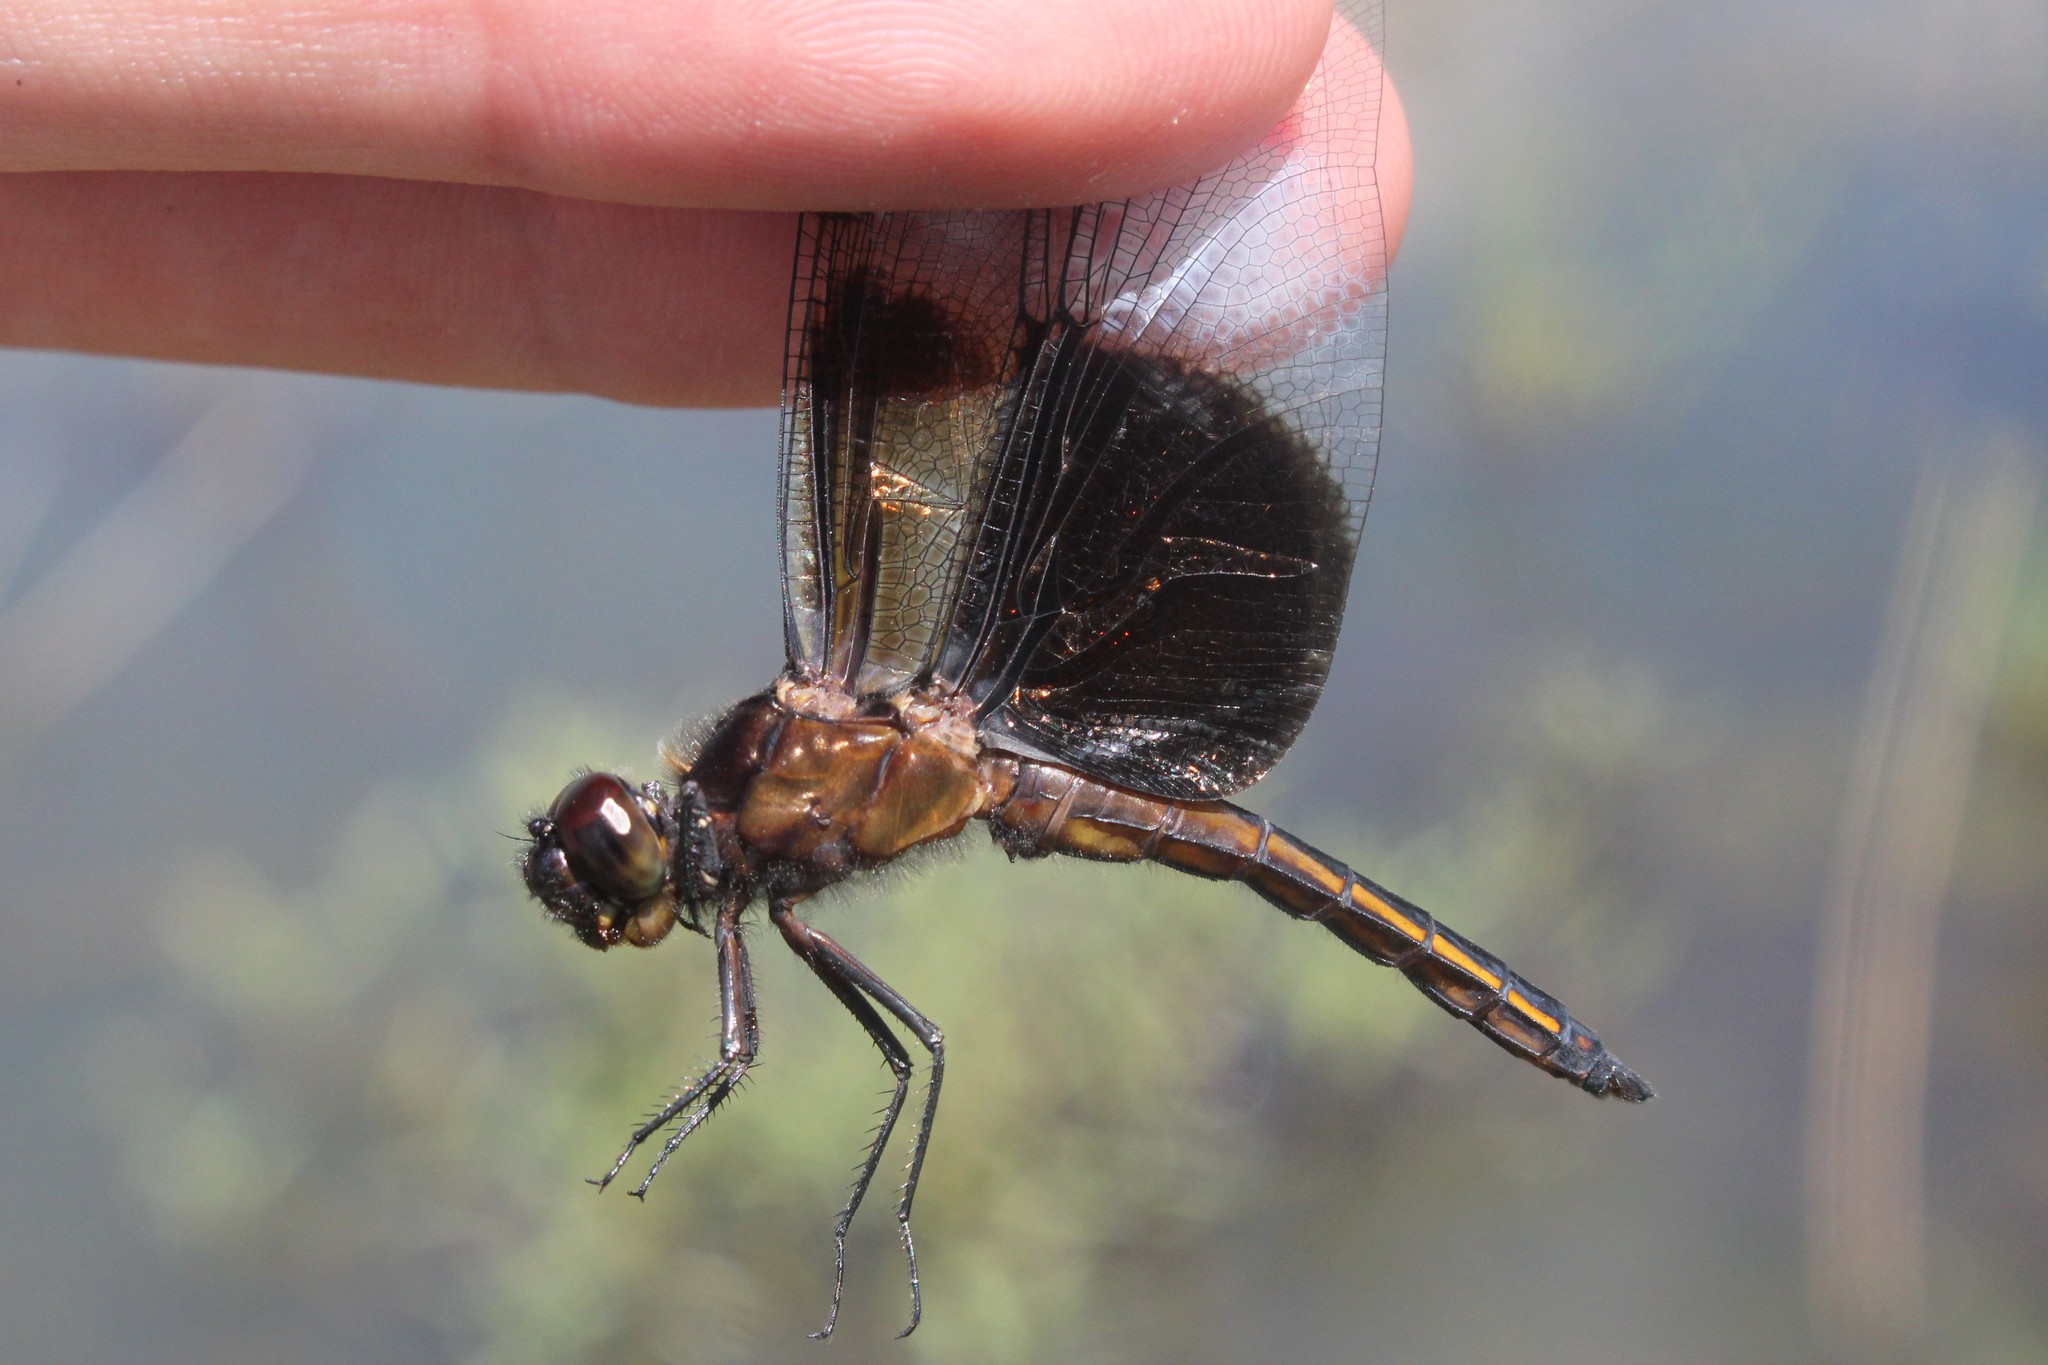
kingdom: Animalia
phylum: Arthropoda
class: Insecta
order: Odonata
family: Libellulidae
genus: Libellula
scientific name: Libellula luctuosa
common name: Widow skimmer
